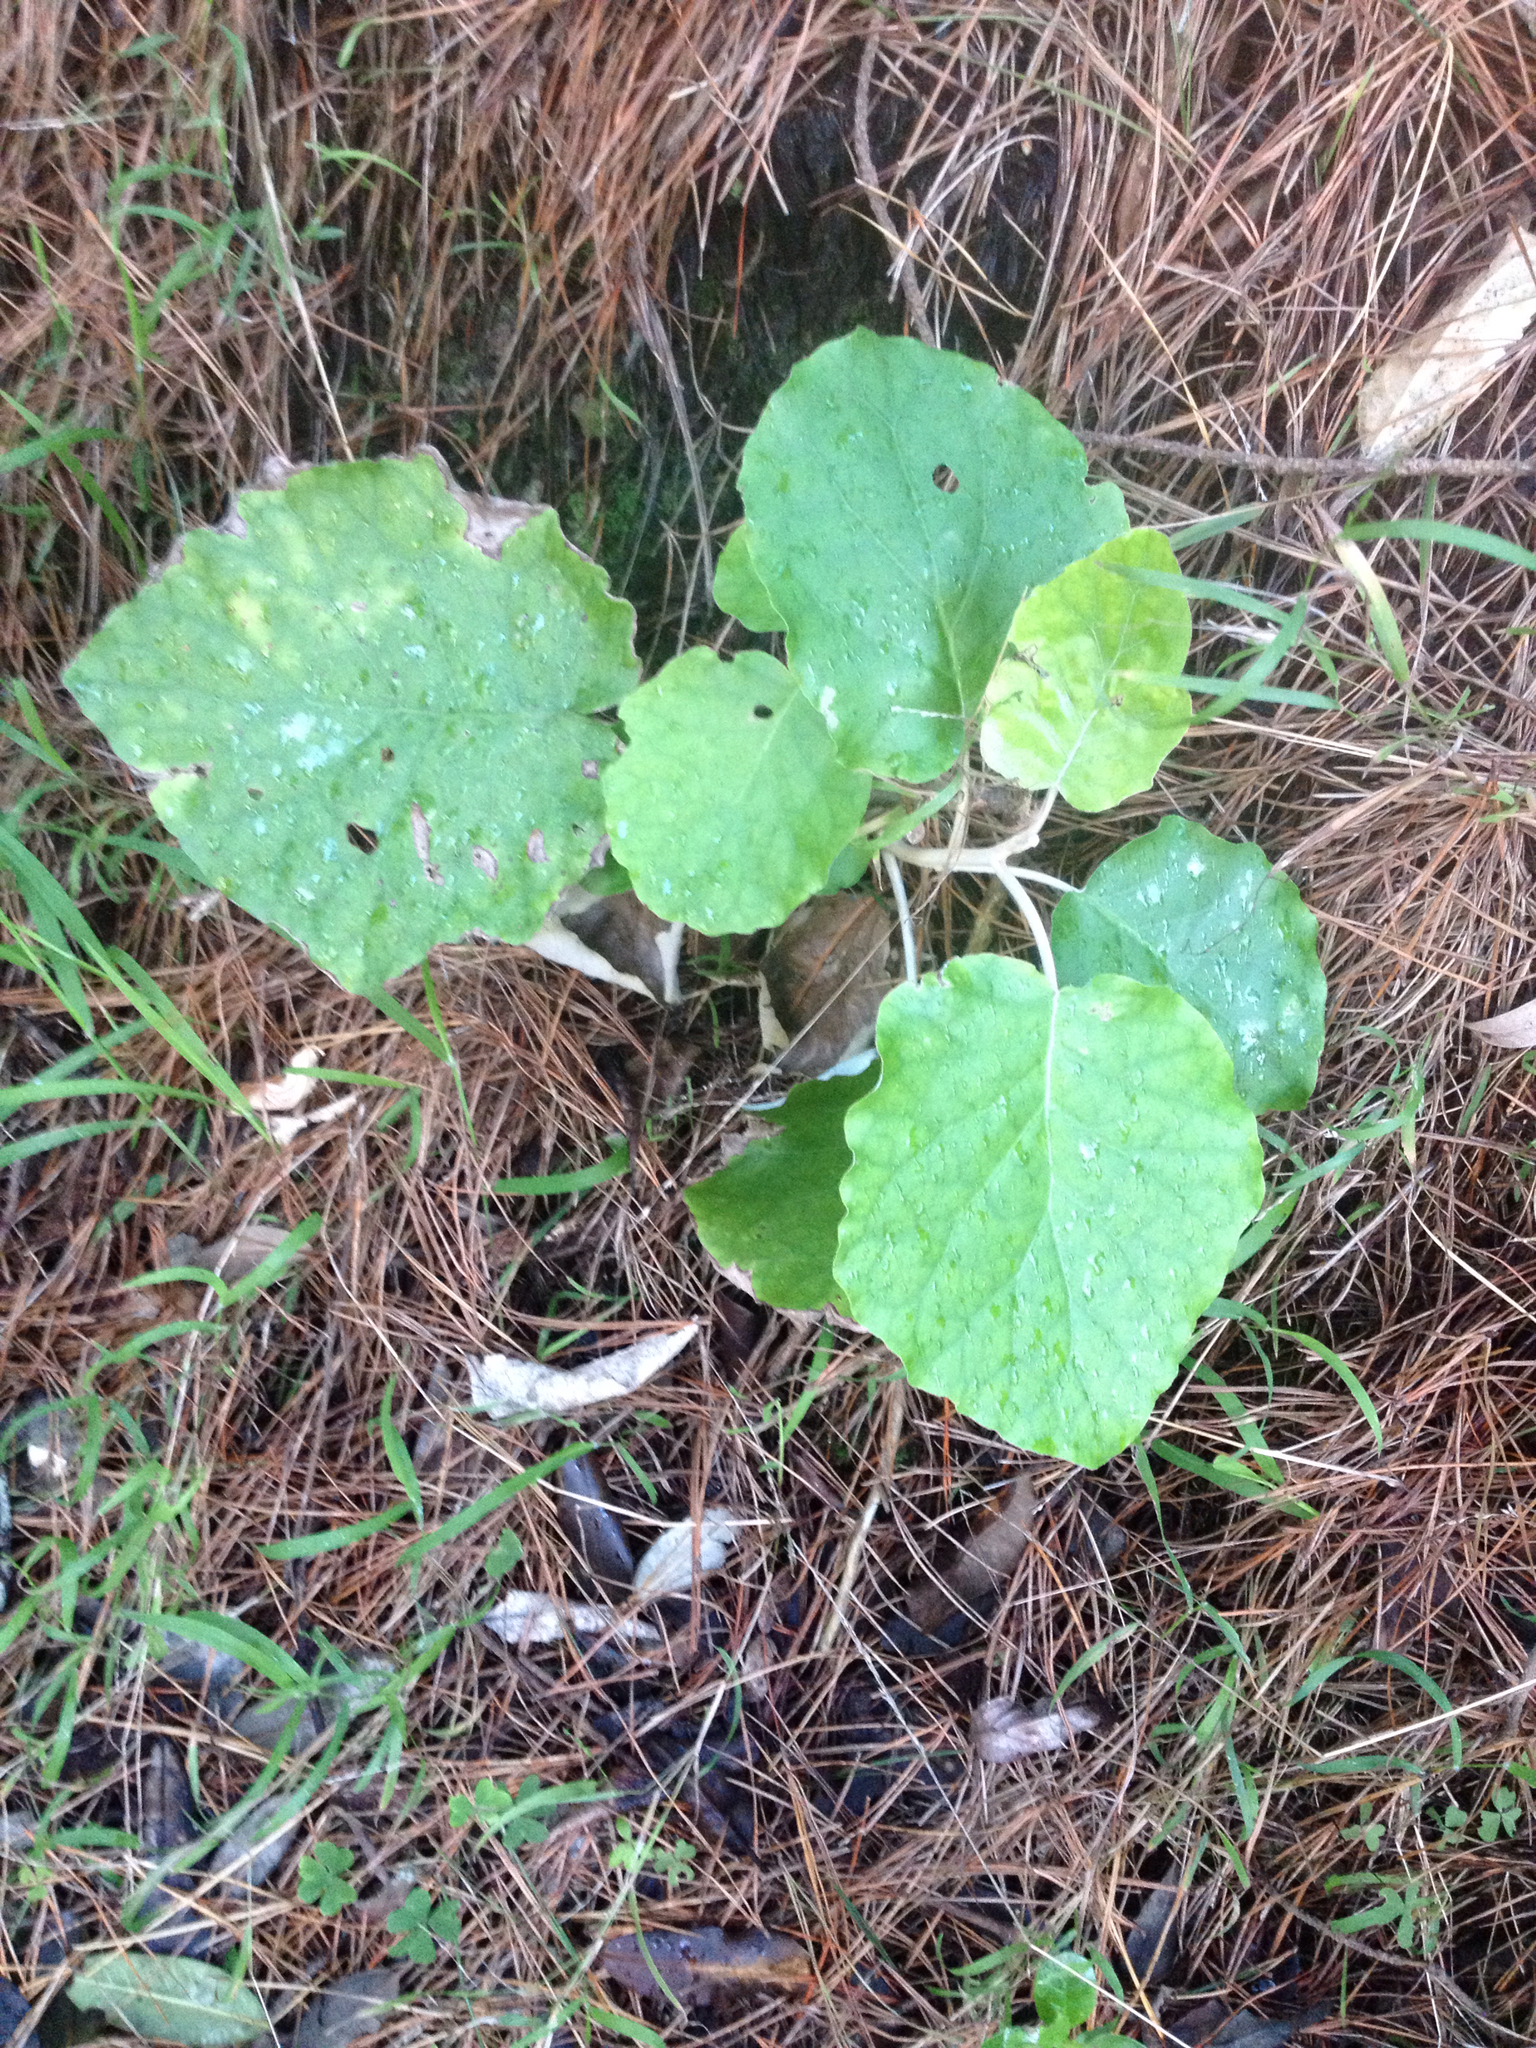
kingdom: Plantae
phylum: Tracheophyta
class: Magnoliopsida
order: Asterales
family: Asteraceae
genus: Brachyglottis
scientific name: Brachyglottis repanda
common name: Hedge ragwort
